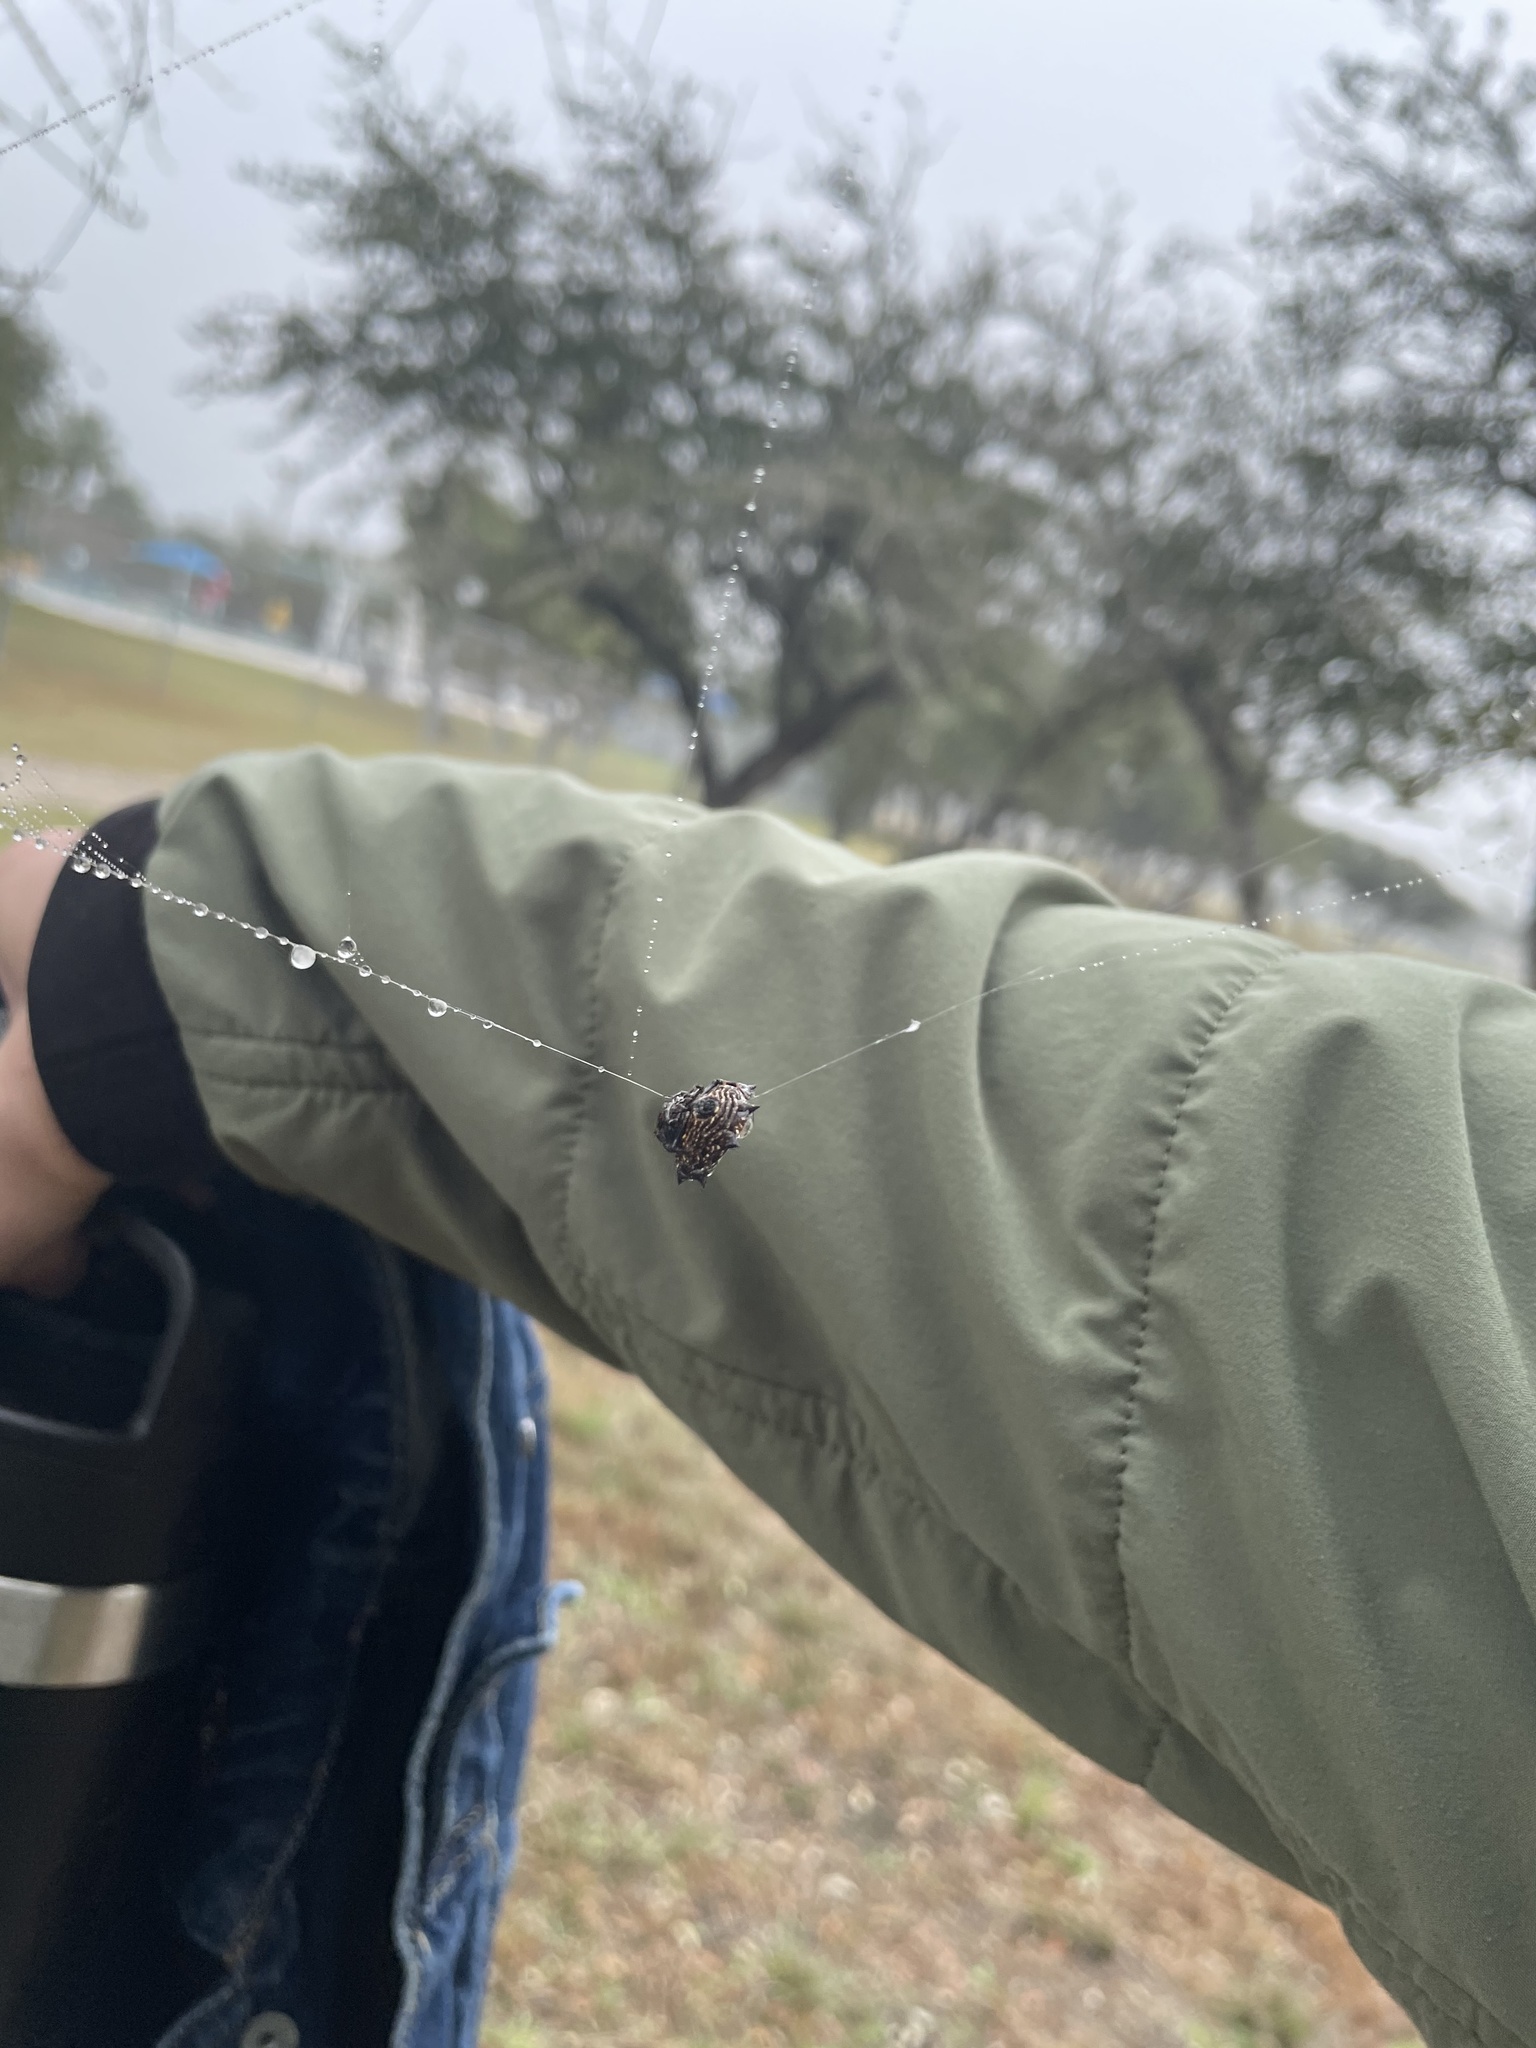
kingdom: Animalia
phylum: Arthropoda
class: Arachnida
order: Araneae
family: Araneidae
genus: Gasteracantha
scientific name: Gasteracantha cancriformis
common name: Orb weavers
